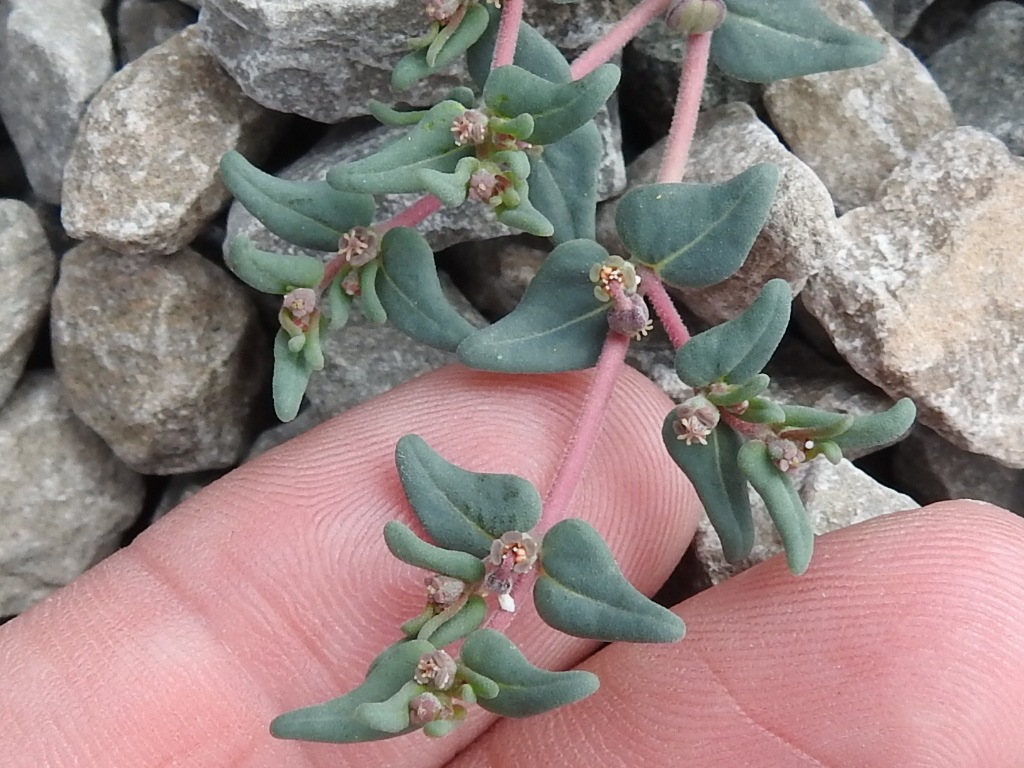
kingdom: Plantae
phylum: Tracheophyta
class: Magnoliopsida
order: Malpighiales
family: Euphorbiaceae
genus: Euphorbia
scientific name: Euphorbia lata
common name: Hoary euphorbia
